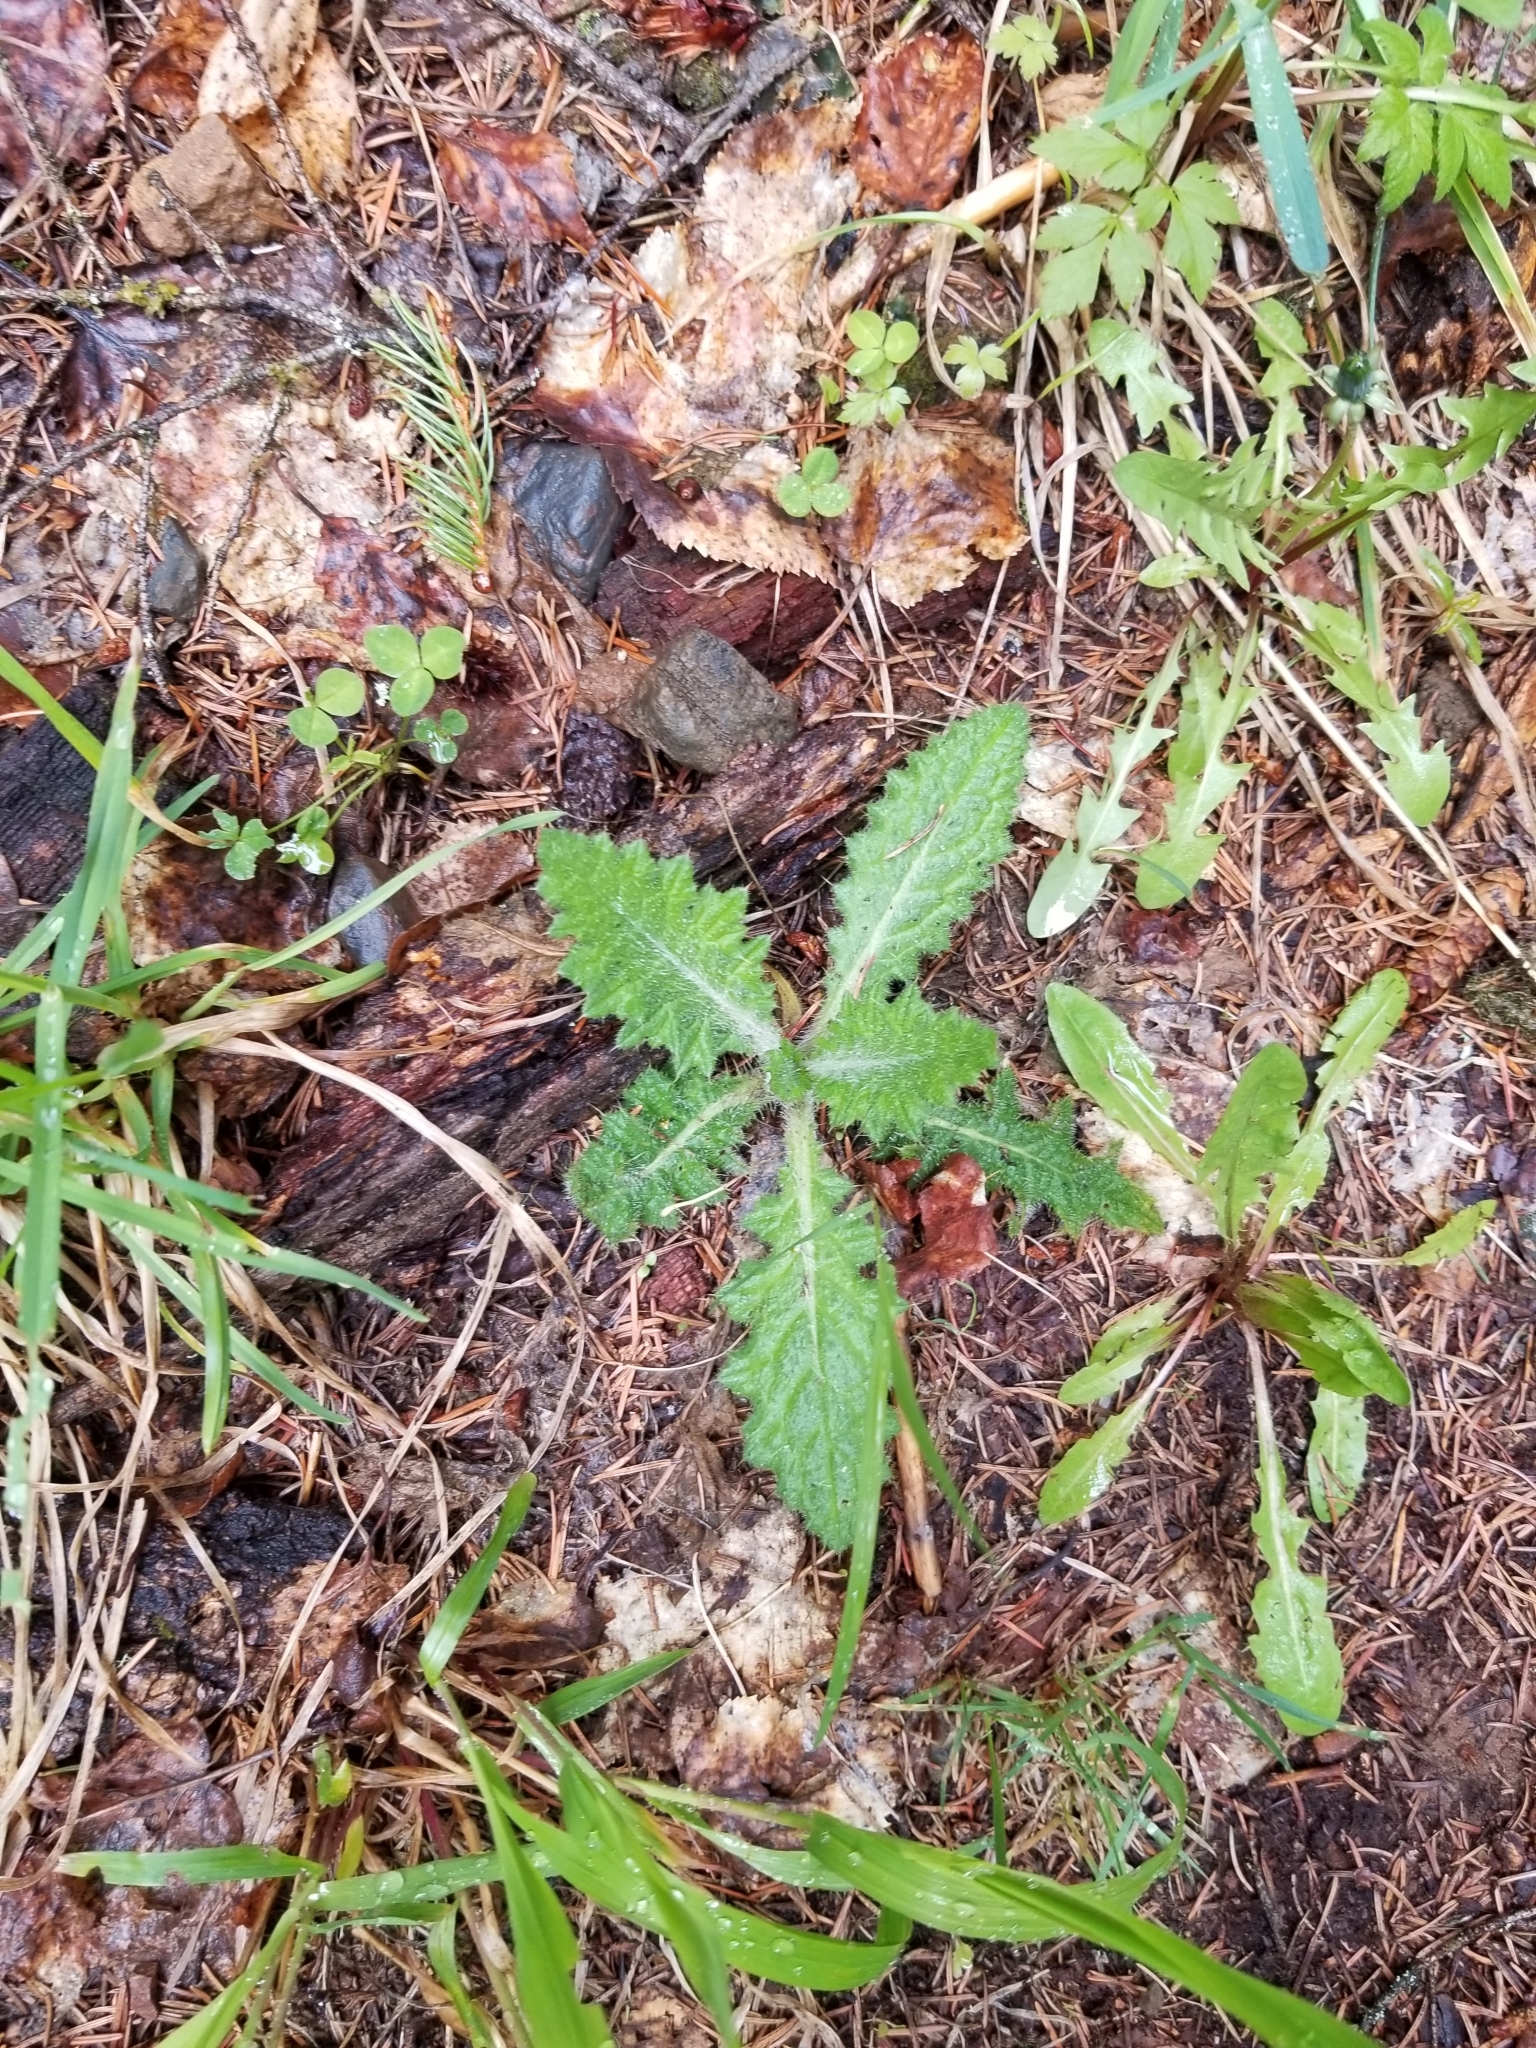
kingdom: Plantae
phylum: Tracheophyta
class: Magnoliopsida
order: Asterales
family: Asteraceae
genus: Cirsium
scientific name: Cirsium vulgare
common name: Bull thistle
